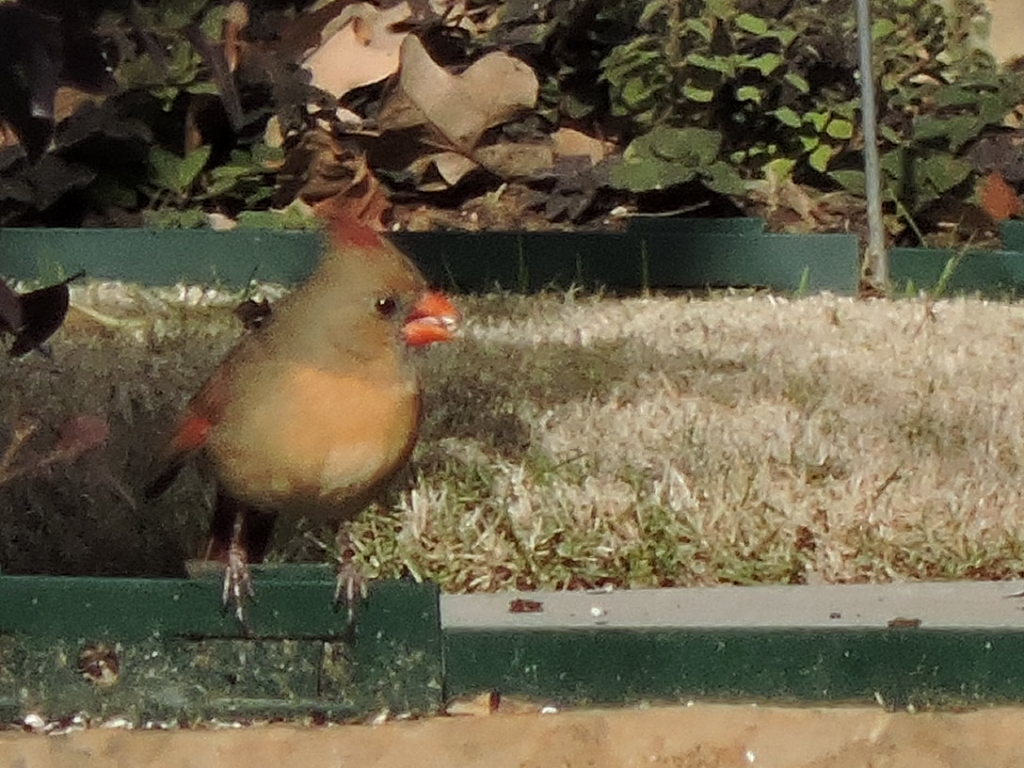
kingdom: Animalia
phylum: Chordata
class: Aves
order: Passeriformes
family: Cardinalidae
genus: Cardinalis
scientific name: Cardinalis cardinalis
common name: Northern cardinal
